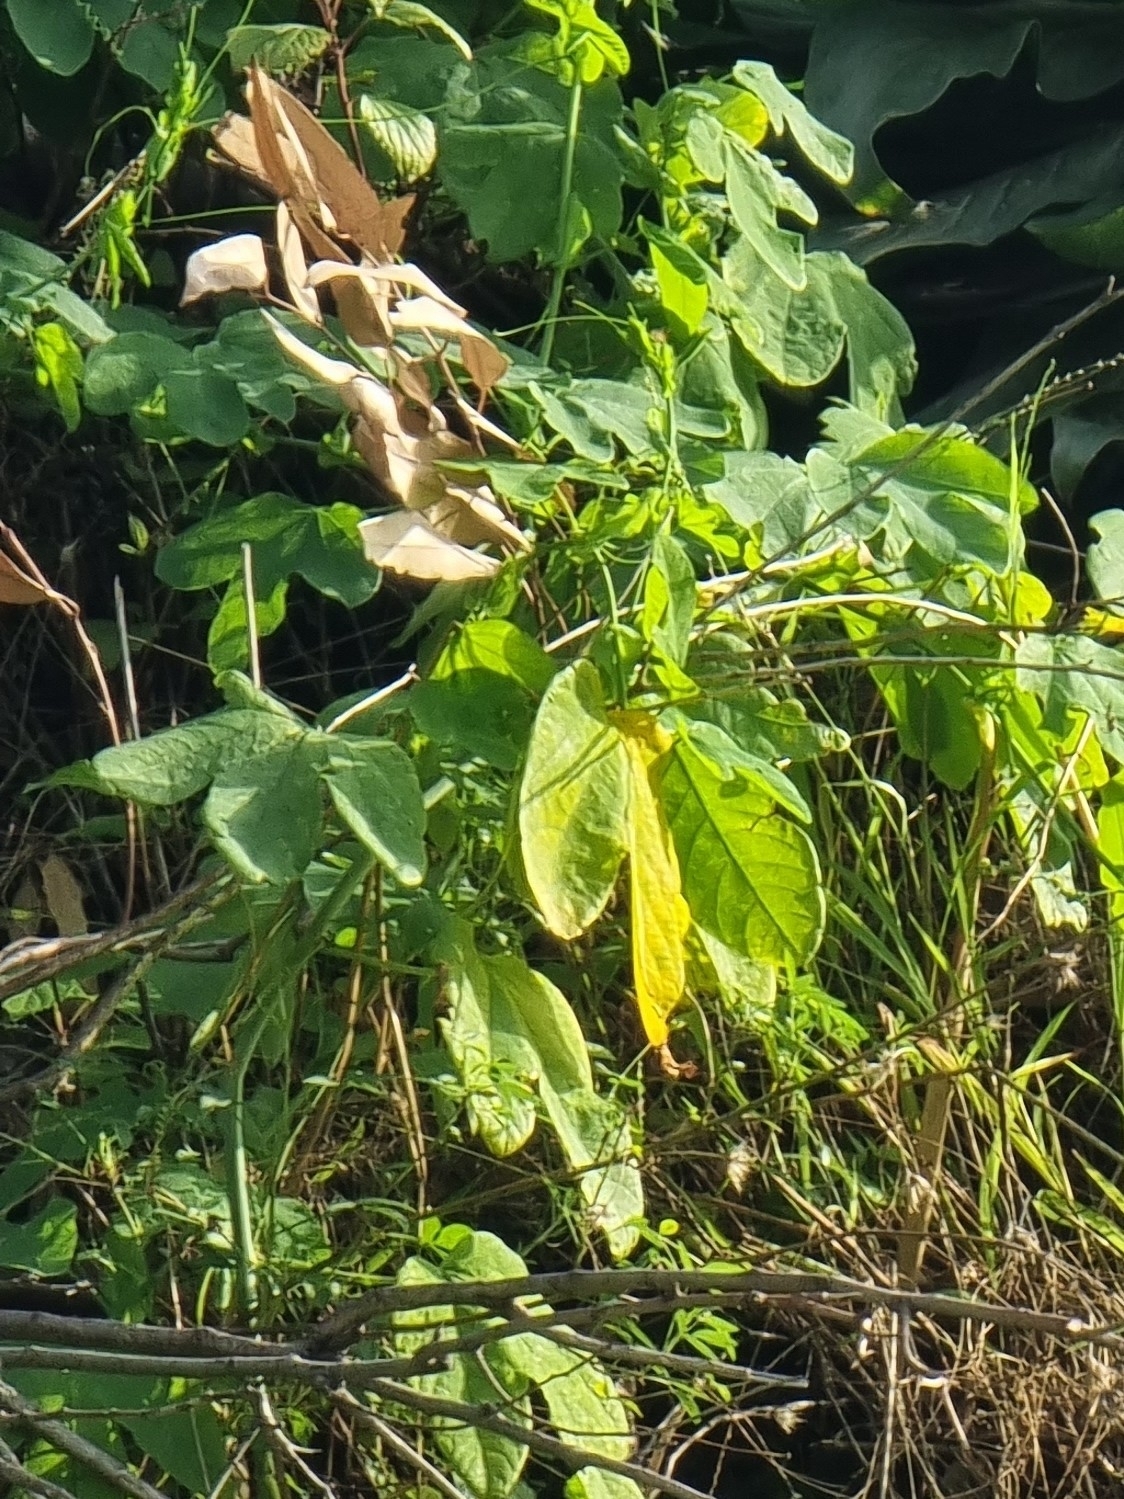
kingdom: Plantae
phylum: Tracheophyta
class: Magnoliopsida
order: Malpighiales
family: Passifloraceae
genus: Passiflora
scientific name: Passiflora subpeltata
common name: White passionflower
